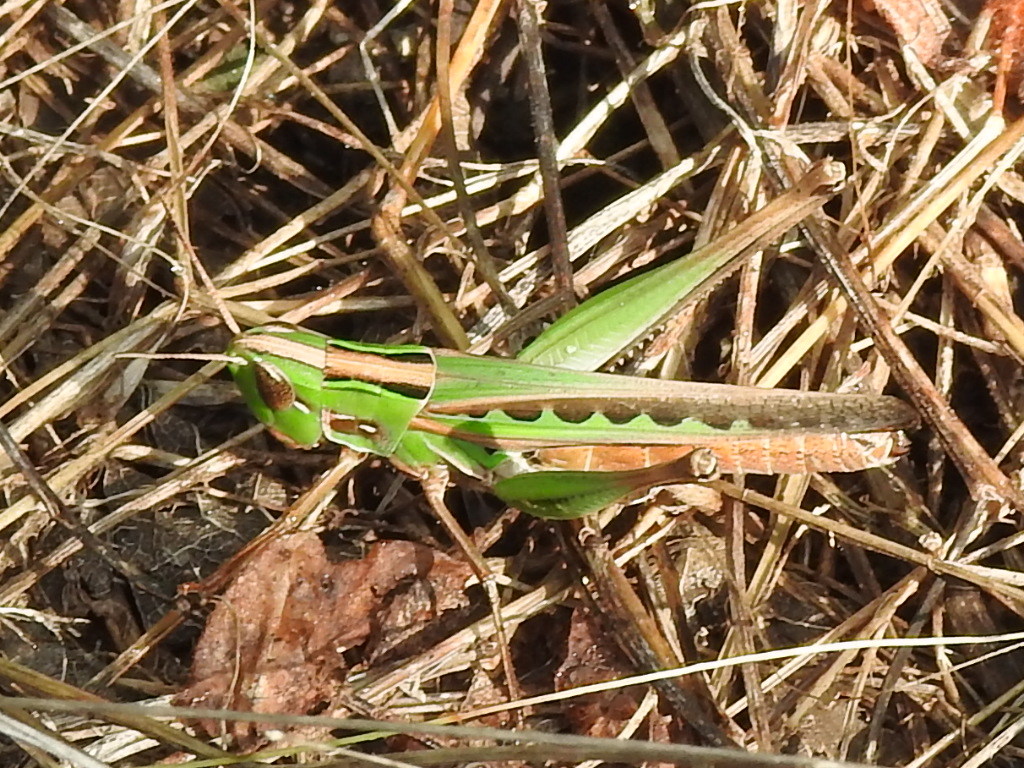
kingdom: Animalia
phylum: Arthropoda
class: Insecta
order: Orthoptera
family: Acrididae
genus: Syrbula
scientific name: Syrbula admirabilis
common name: Handsome grasshopper
